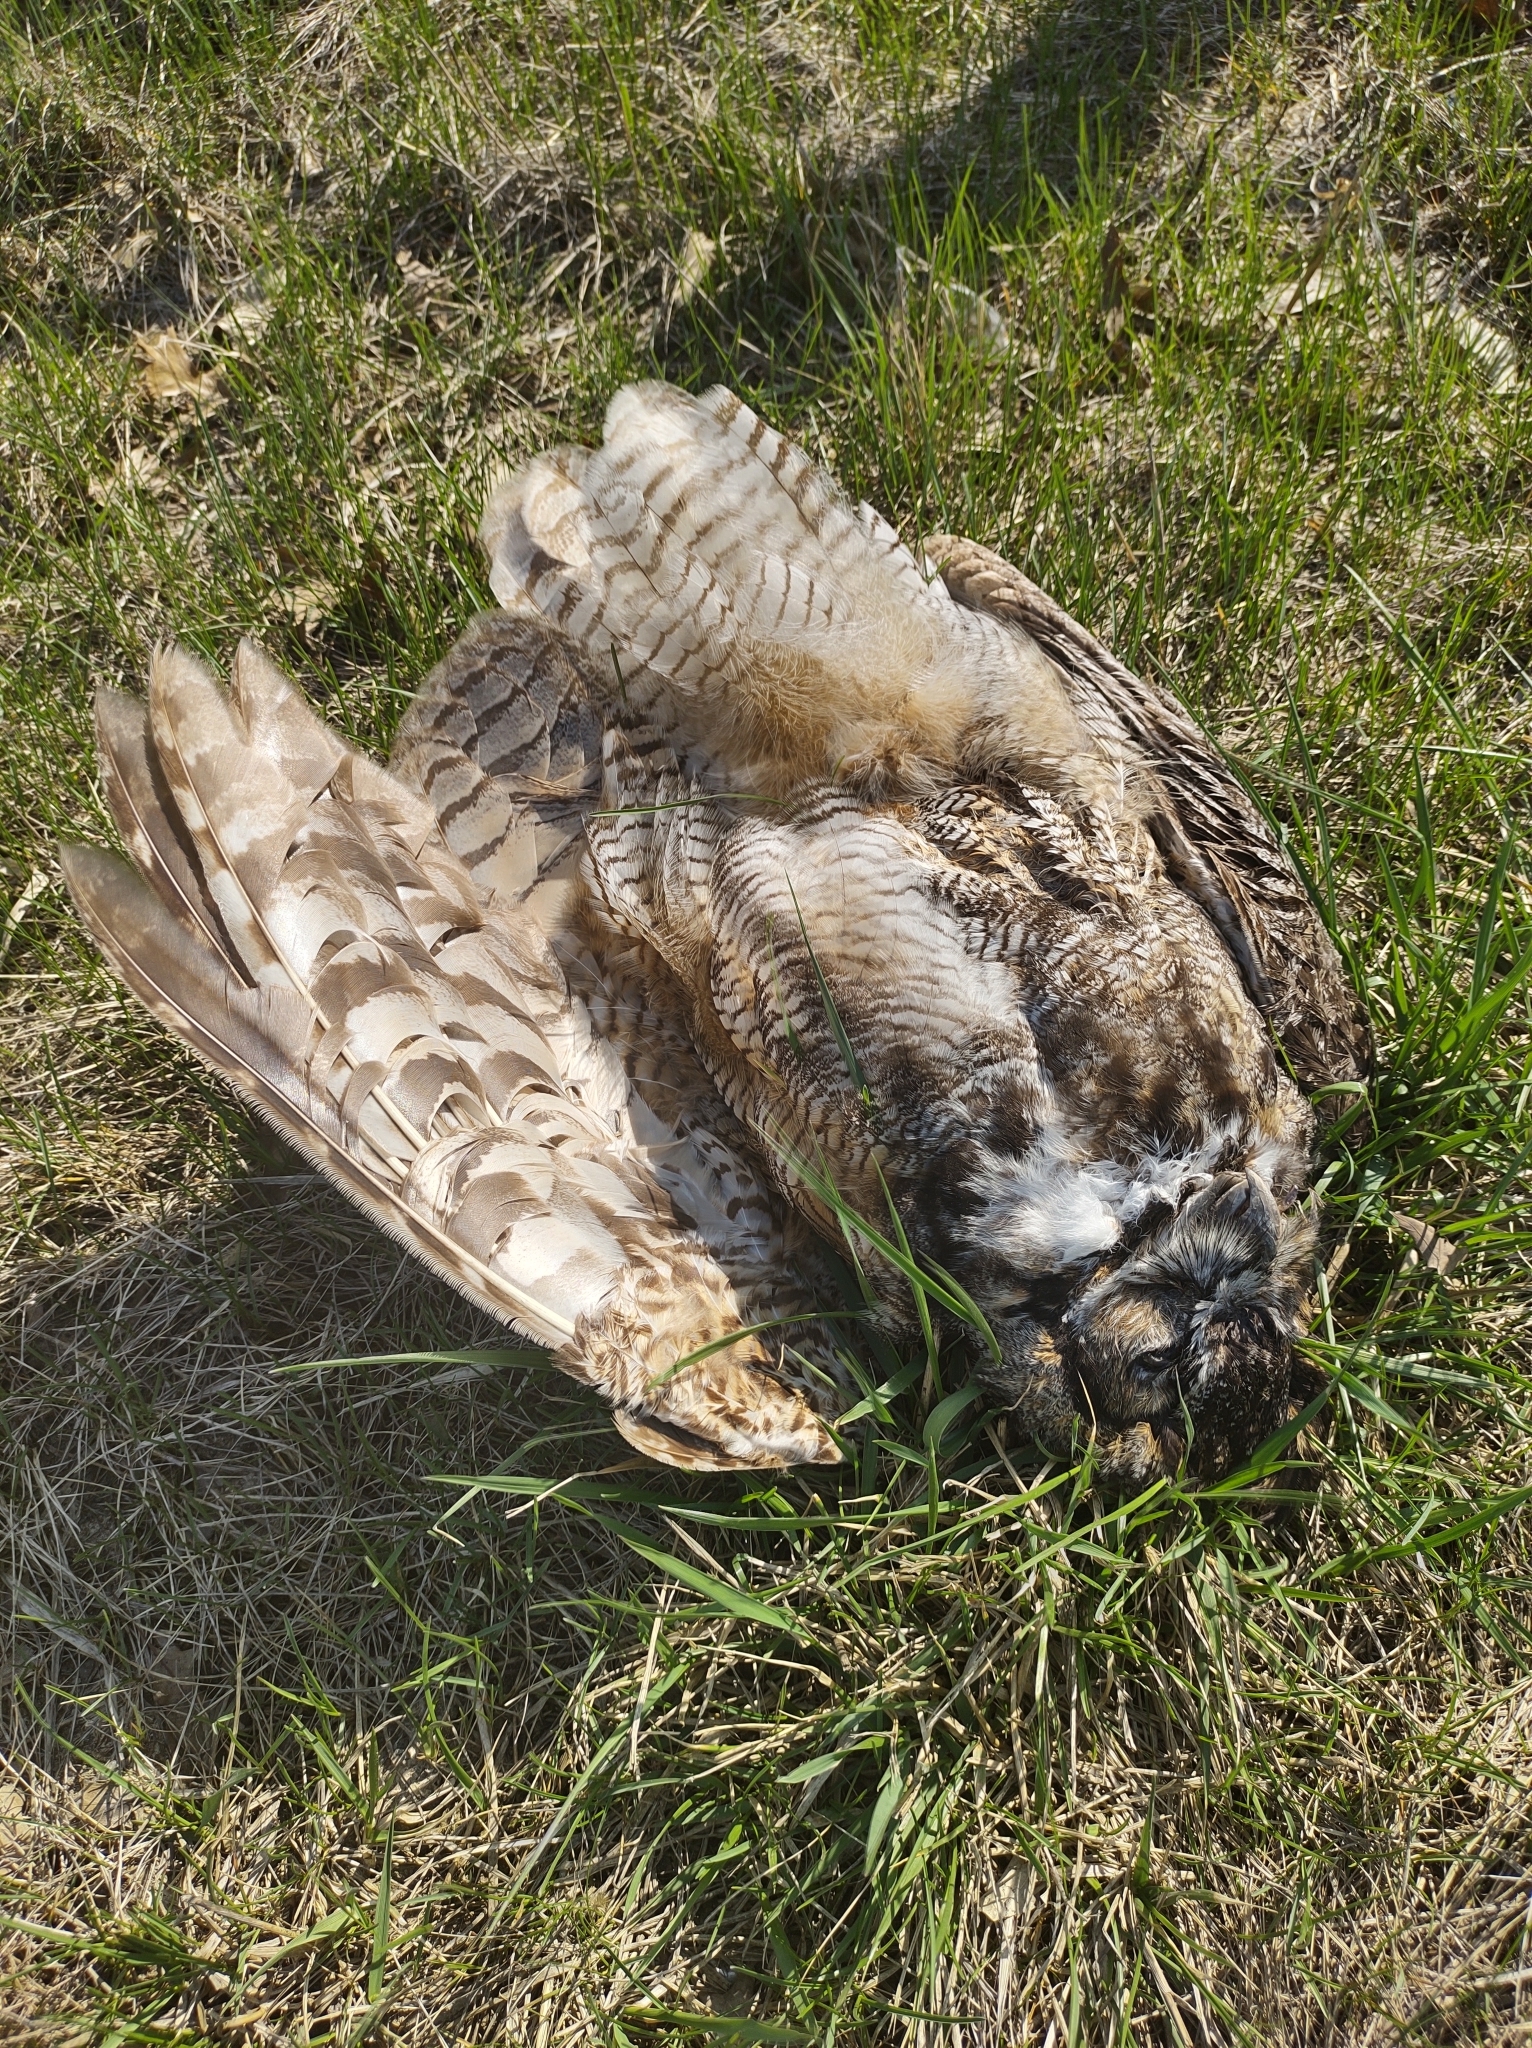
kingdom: Animalia
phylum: Chordata
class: Aves
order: Strigiformes
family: Strigidae
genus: Bubo
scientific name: Bubo virginianus
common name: Great horned owl
